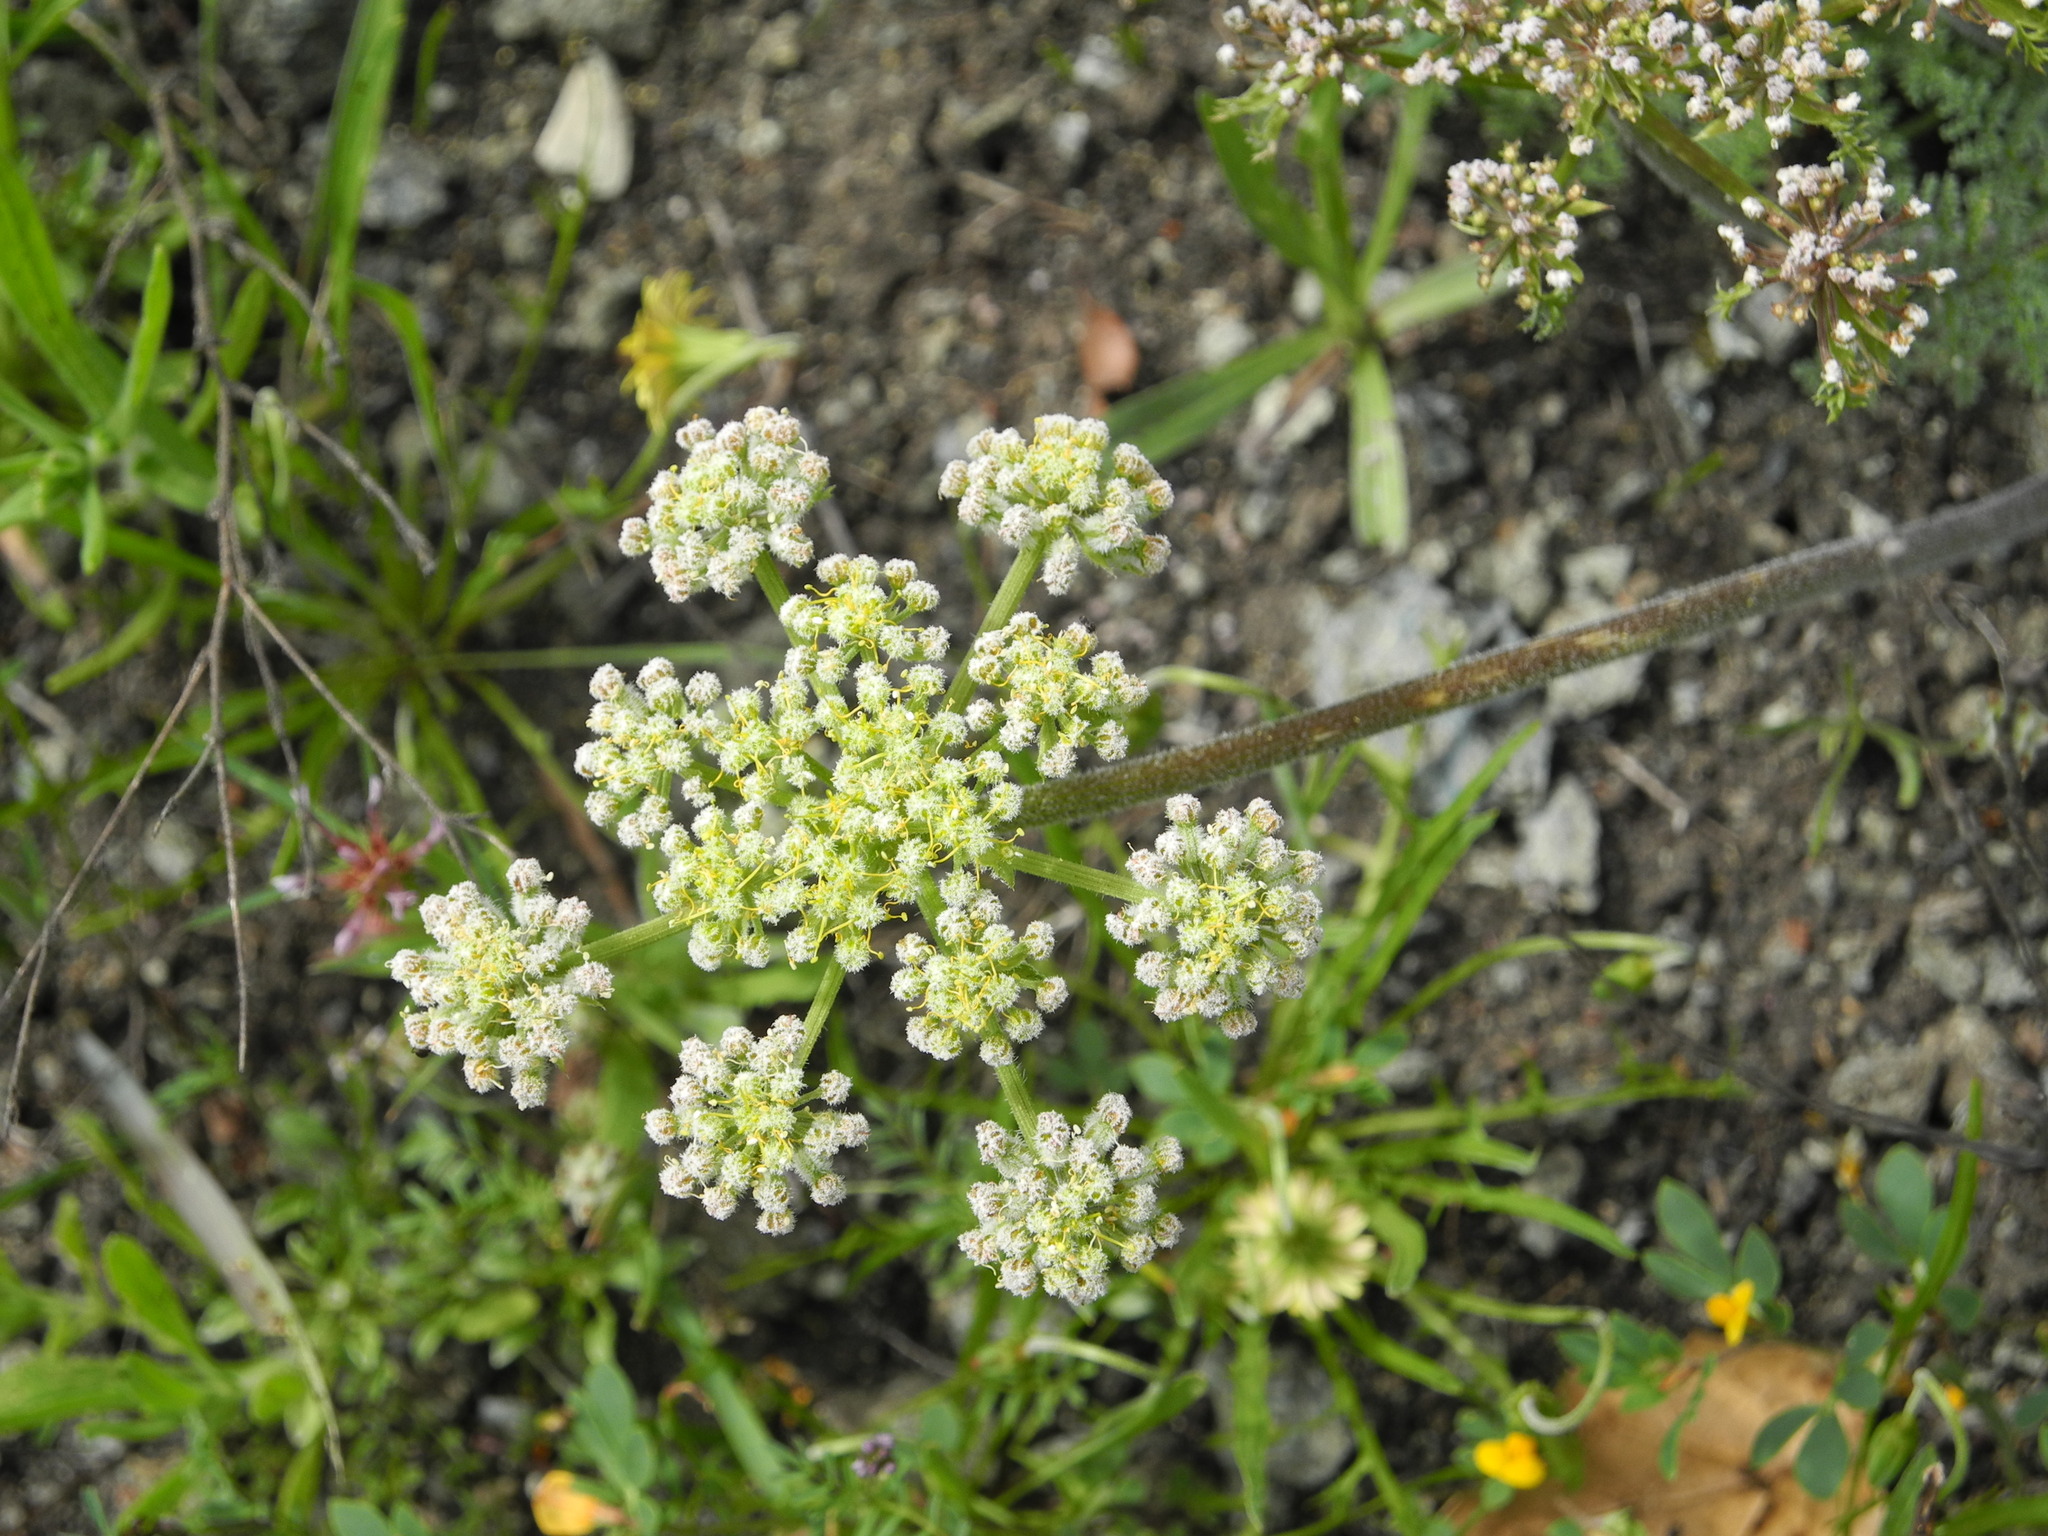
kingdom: Plantae
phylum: Tracheophyta
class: Magnoliopsida
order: Apiales
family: Apiaceae
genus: Lomatium
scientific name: Lomatium dasycarpum
